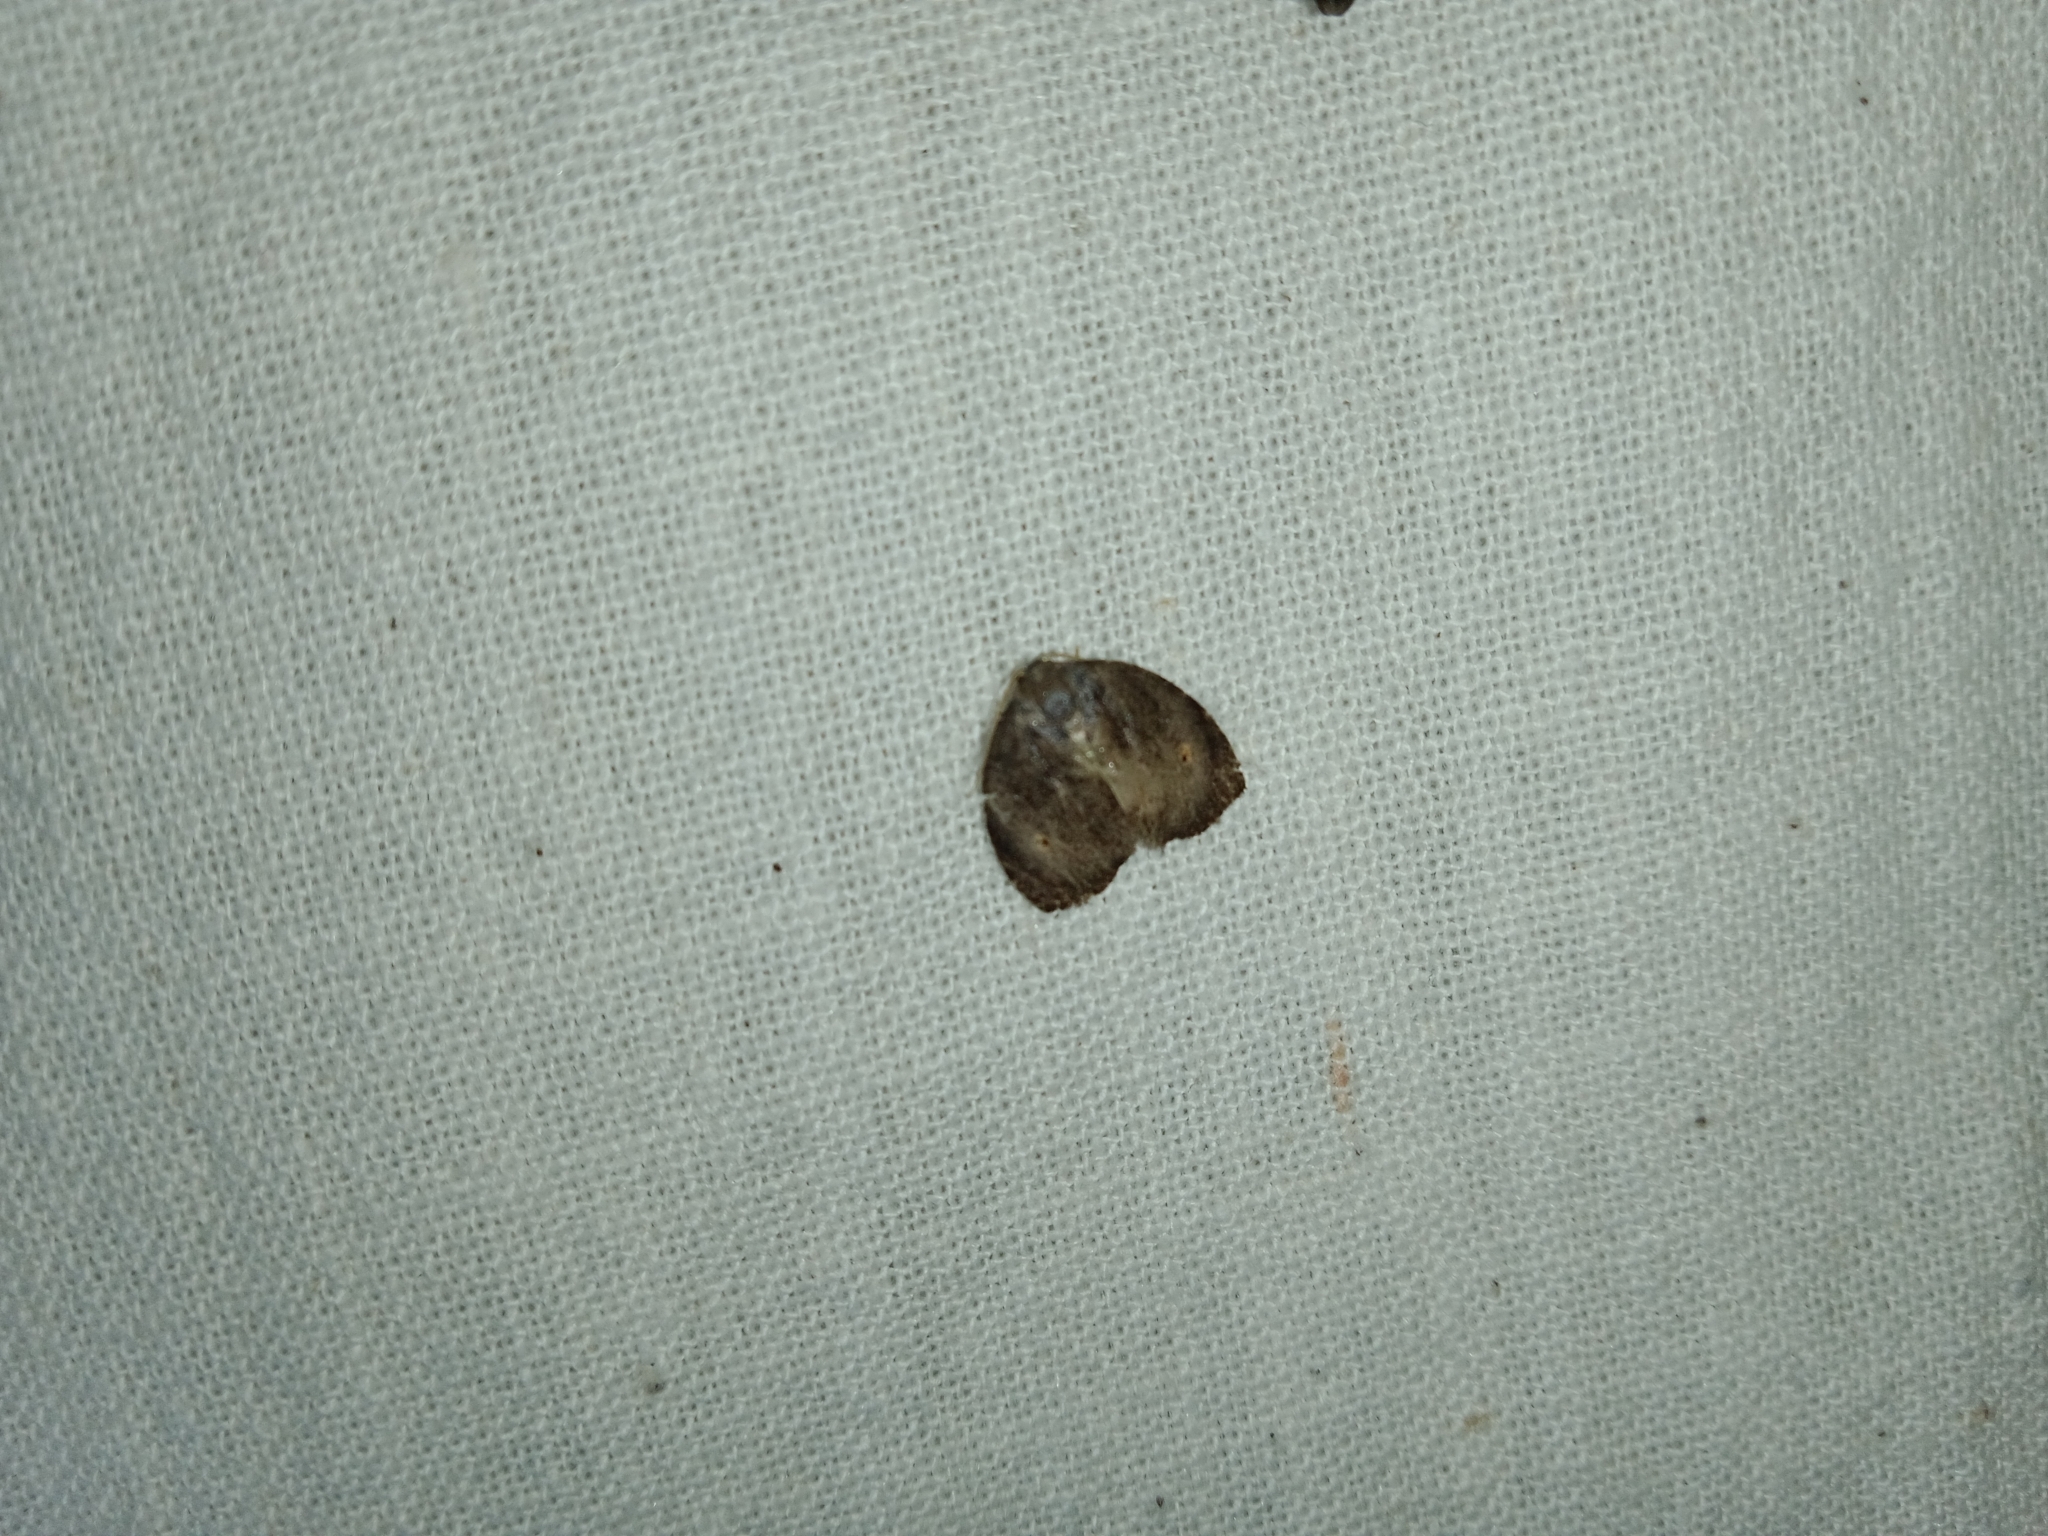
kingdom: Animalia
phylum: Arthropoda
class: Insecta
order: Lepidoptera
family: Erebidae
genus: Hemonia
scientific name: Hemonia orbiferana
